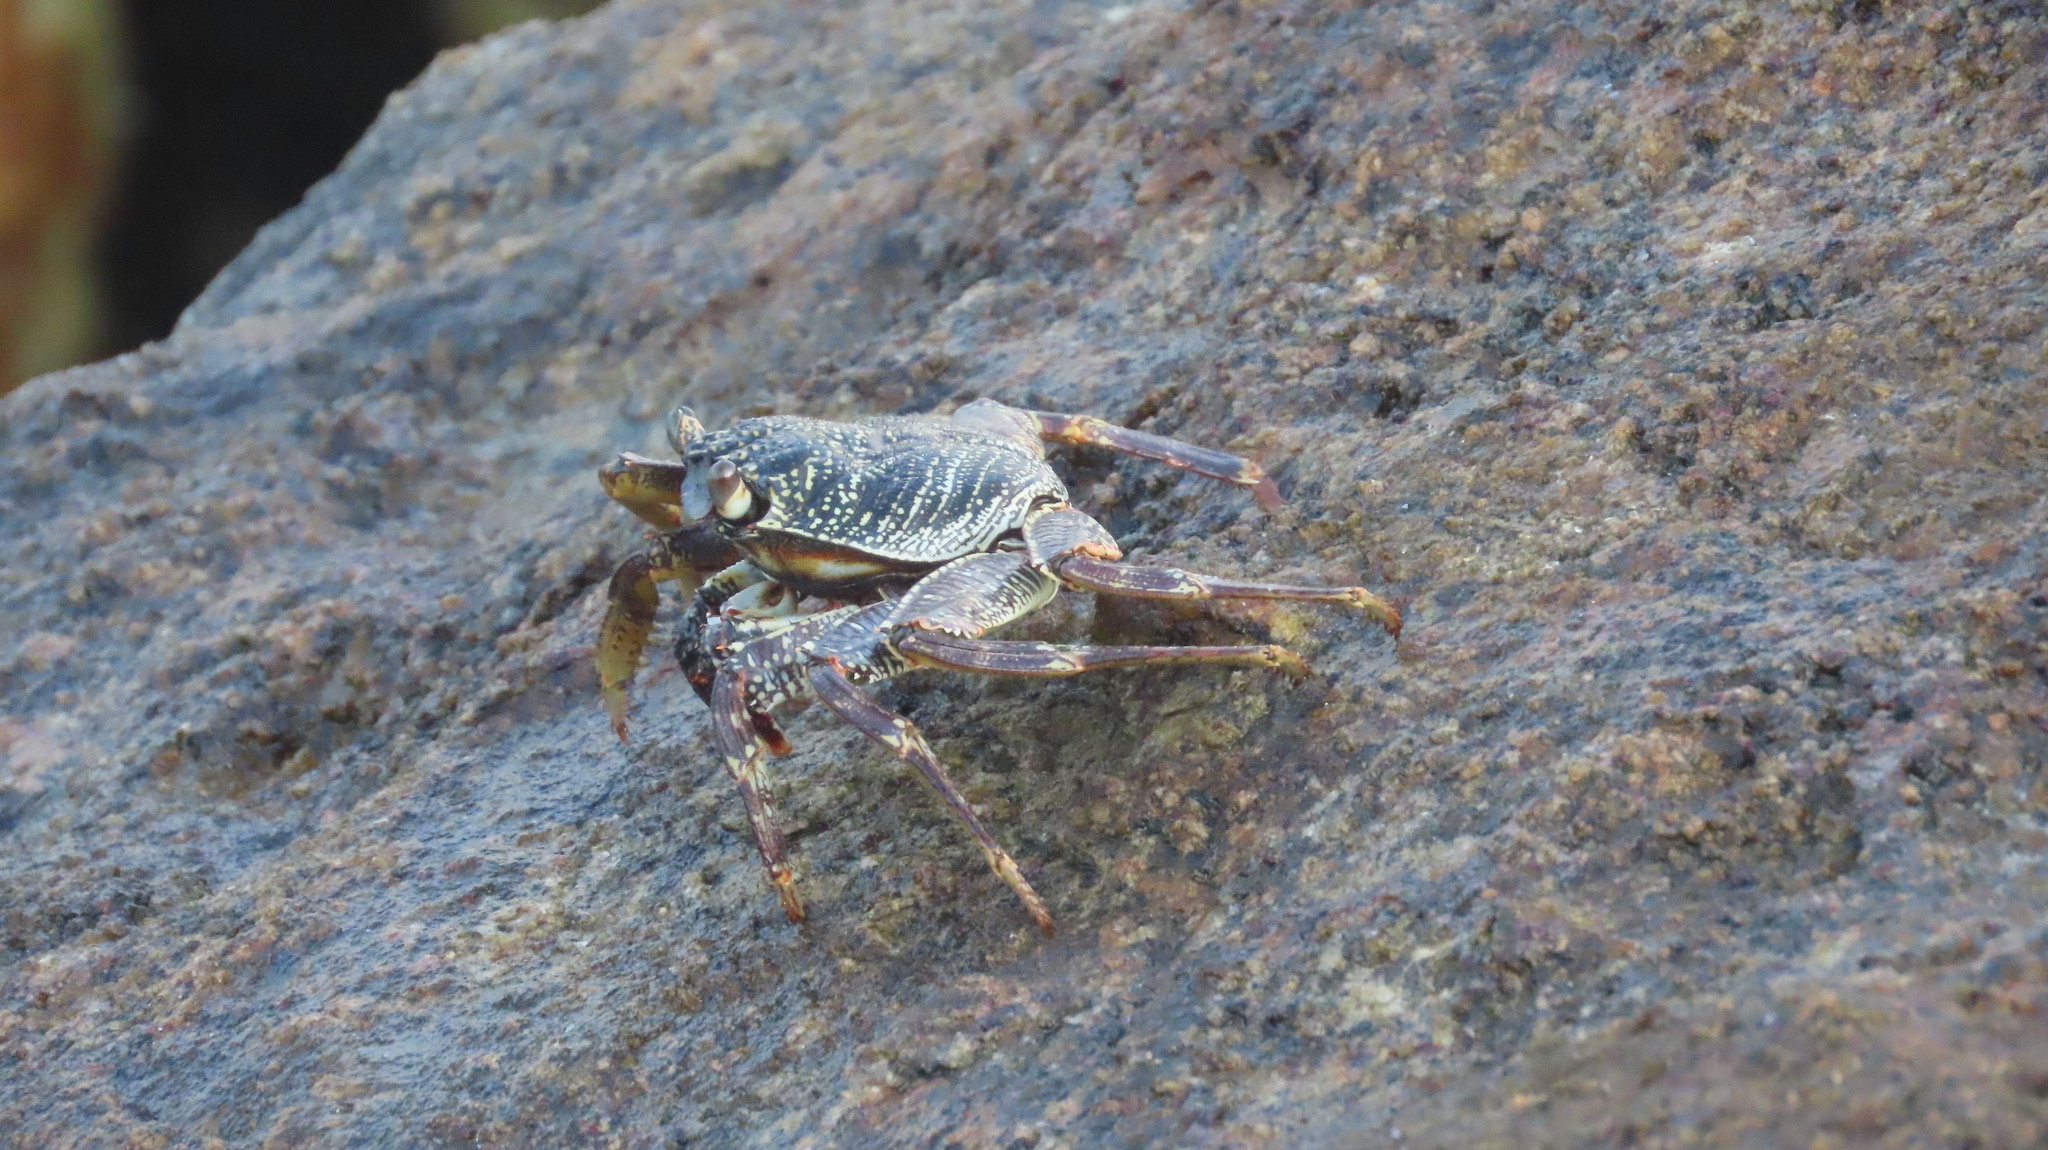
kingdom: Animalia
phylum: Arthropoda
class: Malacostraca
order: Decapoda
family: Grapsidae
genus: Grapsus
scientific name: Grapsus tenuicrustatus
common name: Natal lightfoot crab
